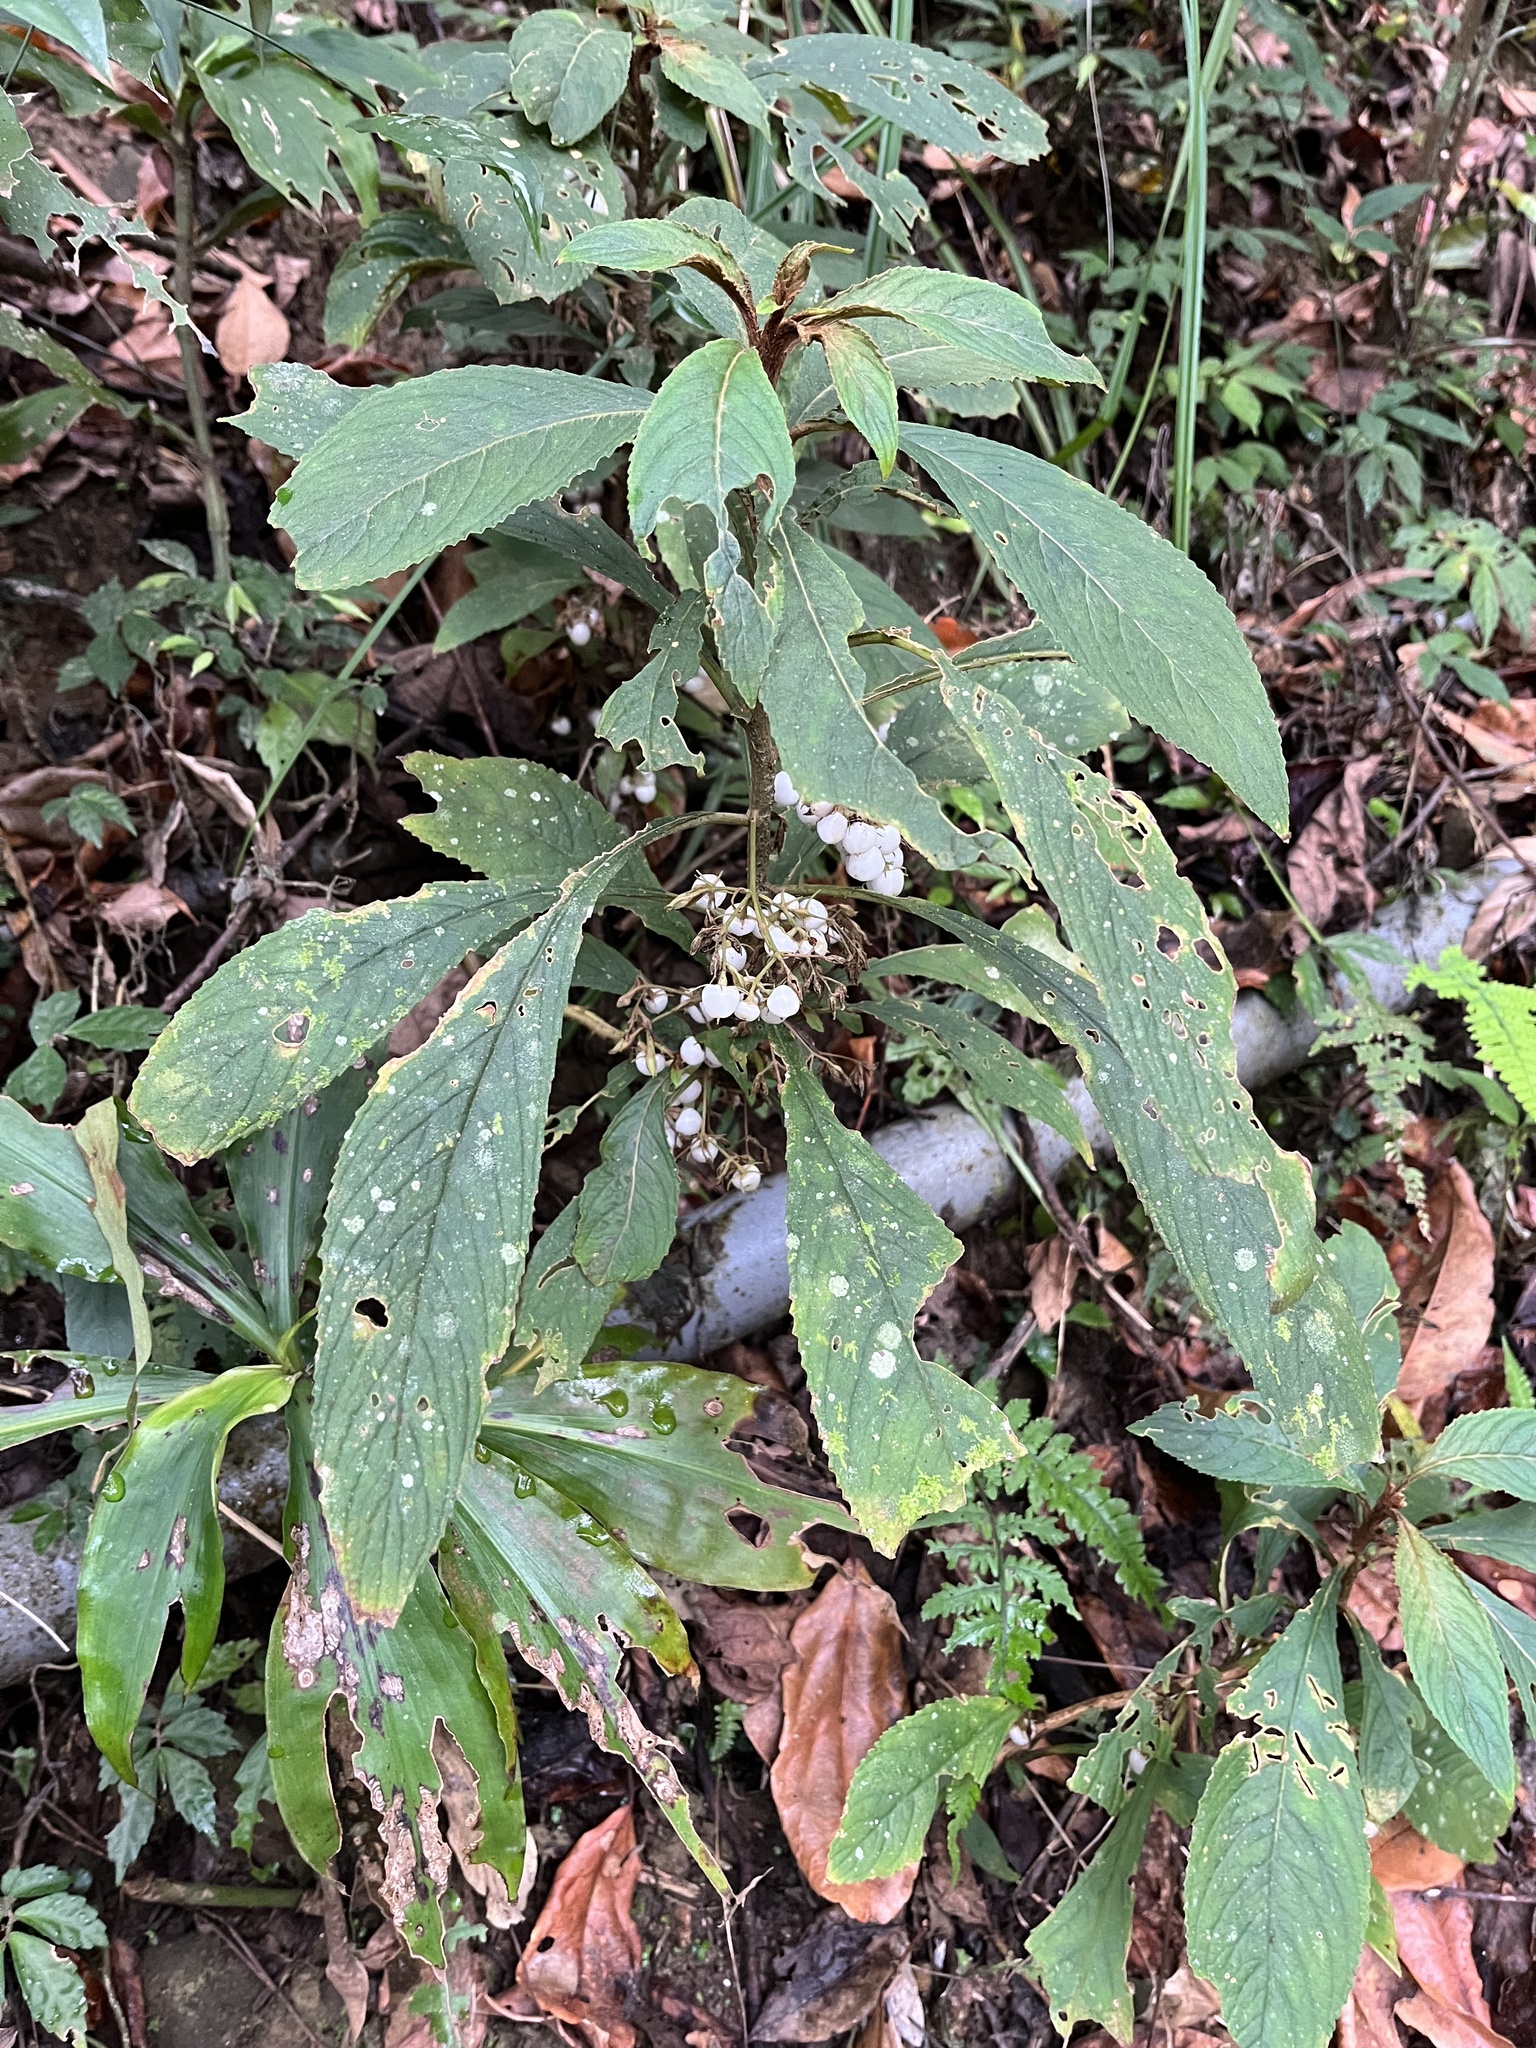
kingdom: Plantae
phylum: Tracheophyta
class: Magnoliopsida
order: Lamiales
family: Gesneriaceae
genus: Rhynchotechum
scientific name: Rhynchotechum discolor
